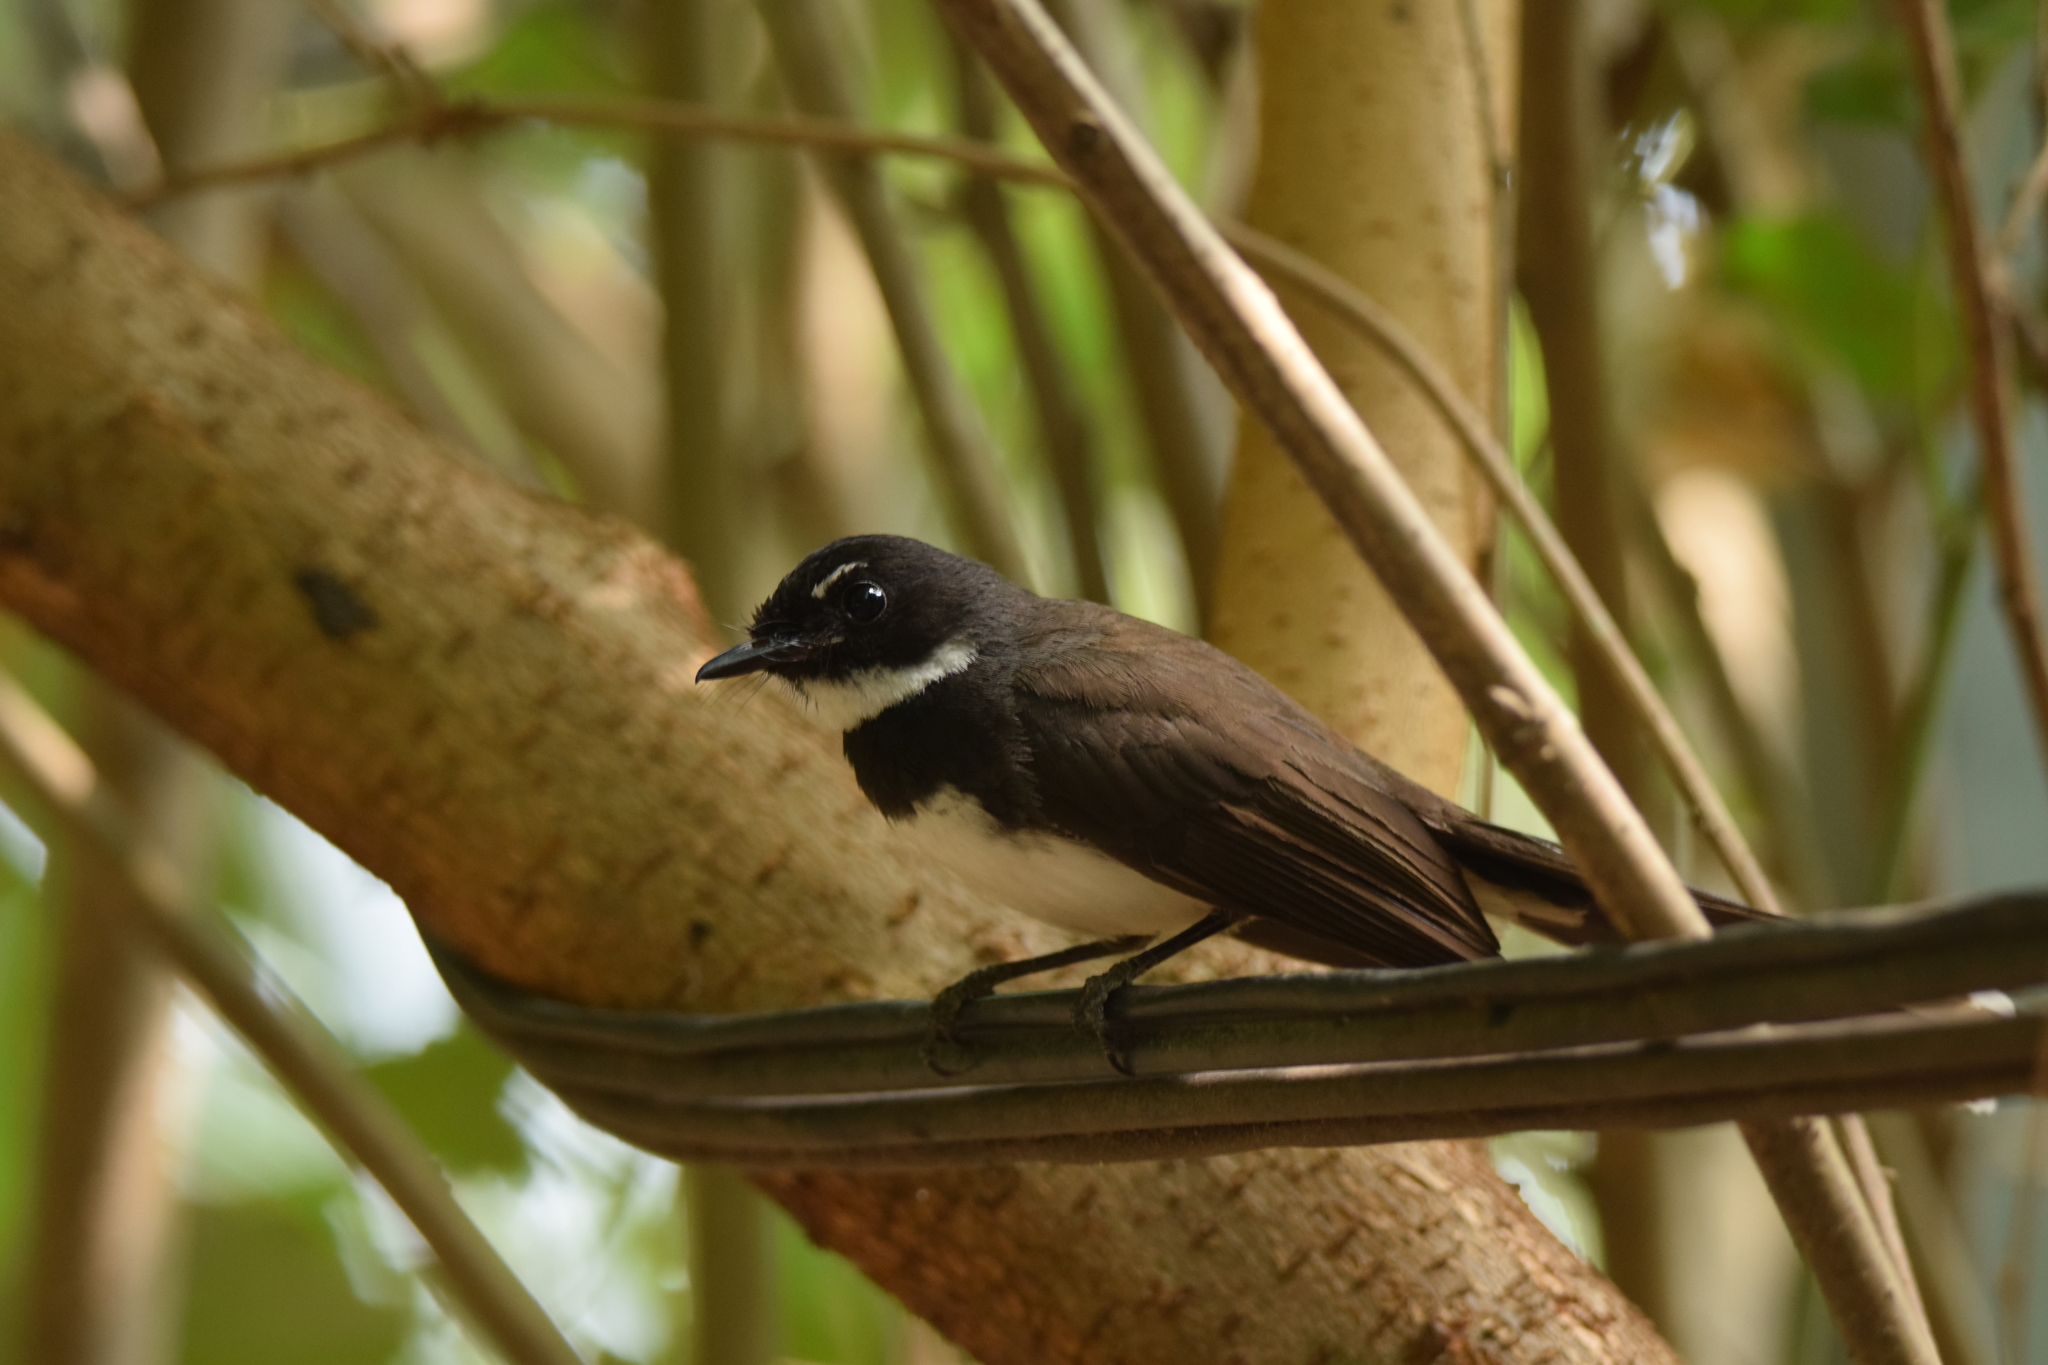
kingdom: Animalia
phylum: Chordata
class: Aves
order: Passeriformes
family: Rhipiduridae
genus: Rhipidura
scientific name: Rhipidura javanica
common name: Pied fantail
